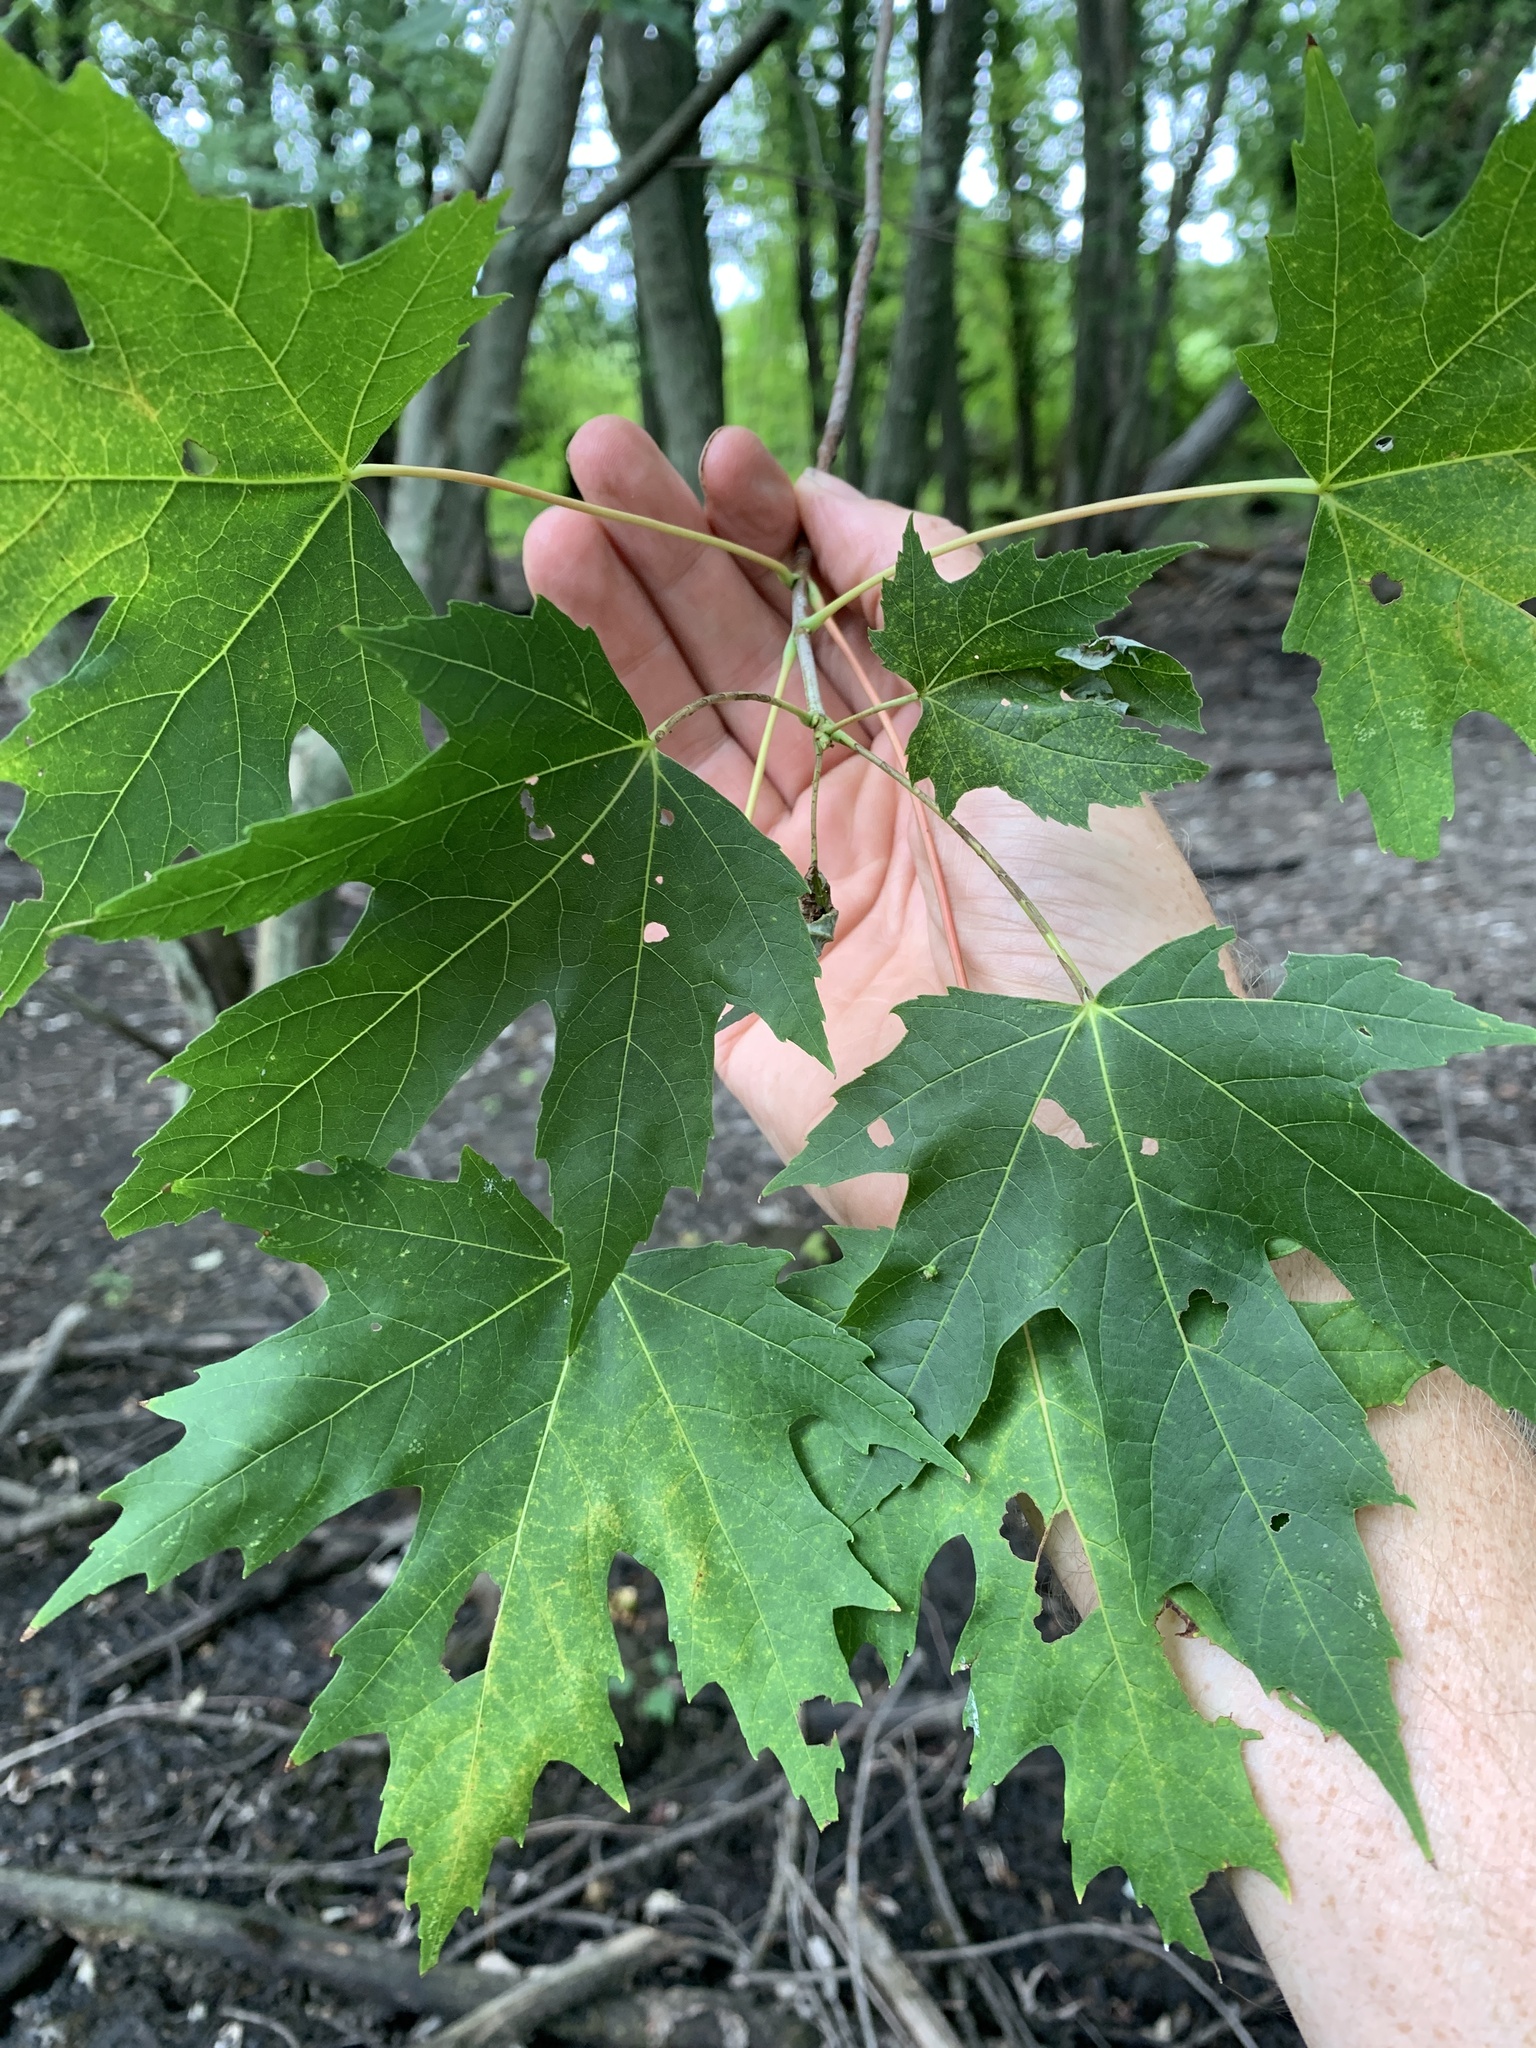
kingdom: Plantae
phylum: Tracheophyta
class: Magnoliopsida
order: Sapindales
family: Sapindaceae
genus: Acer
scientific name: Acer saccharinum
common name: Silver maple
